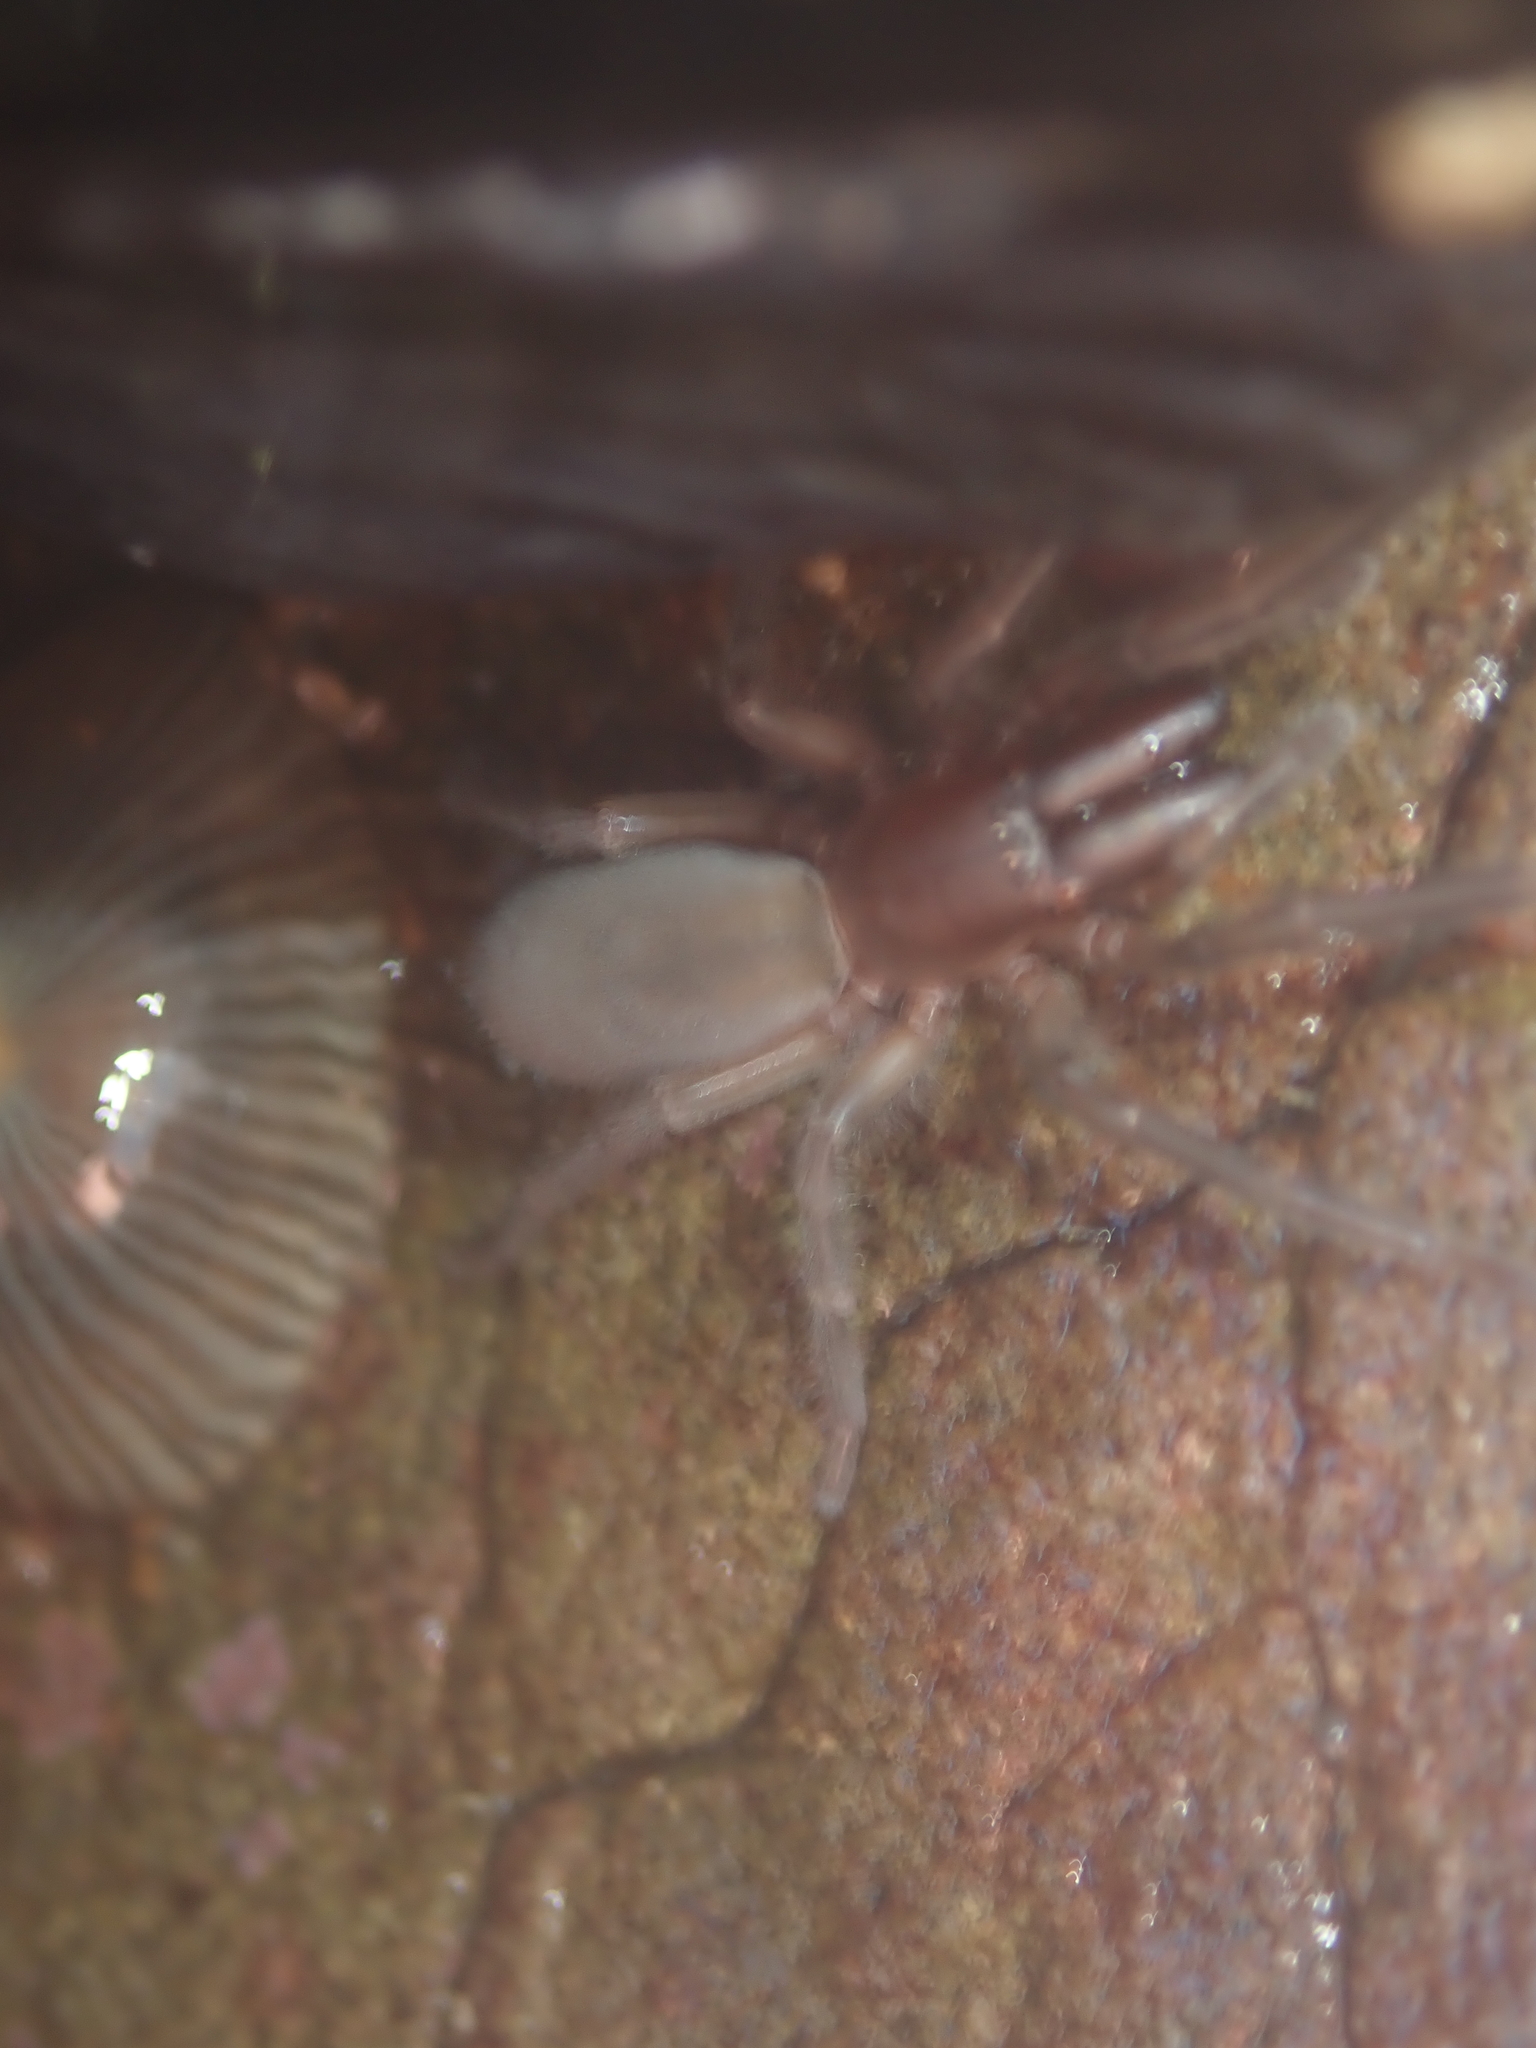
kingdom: Animalia
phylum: Arthropoda
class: Arachnida
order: Araneae
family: Desidae
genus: Desis
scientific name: Desis marina
